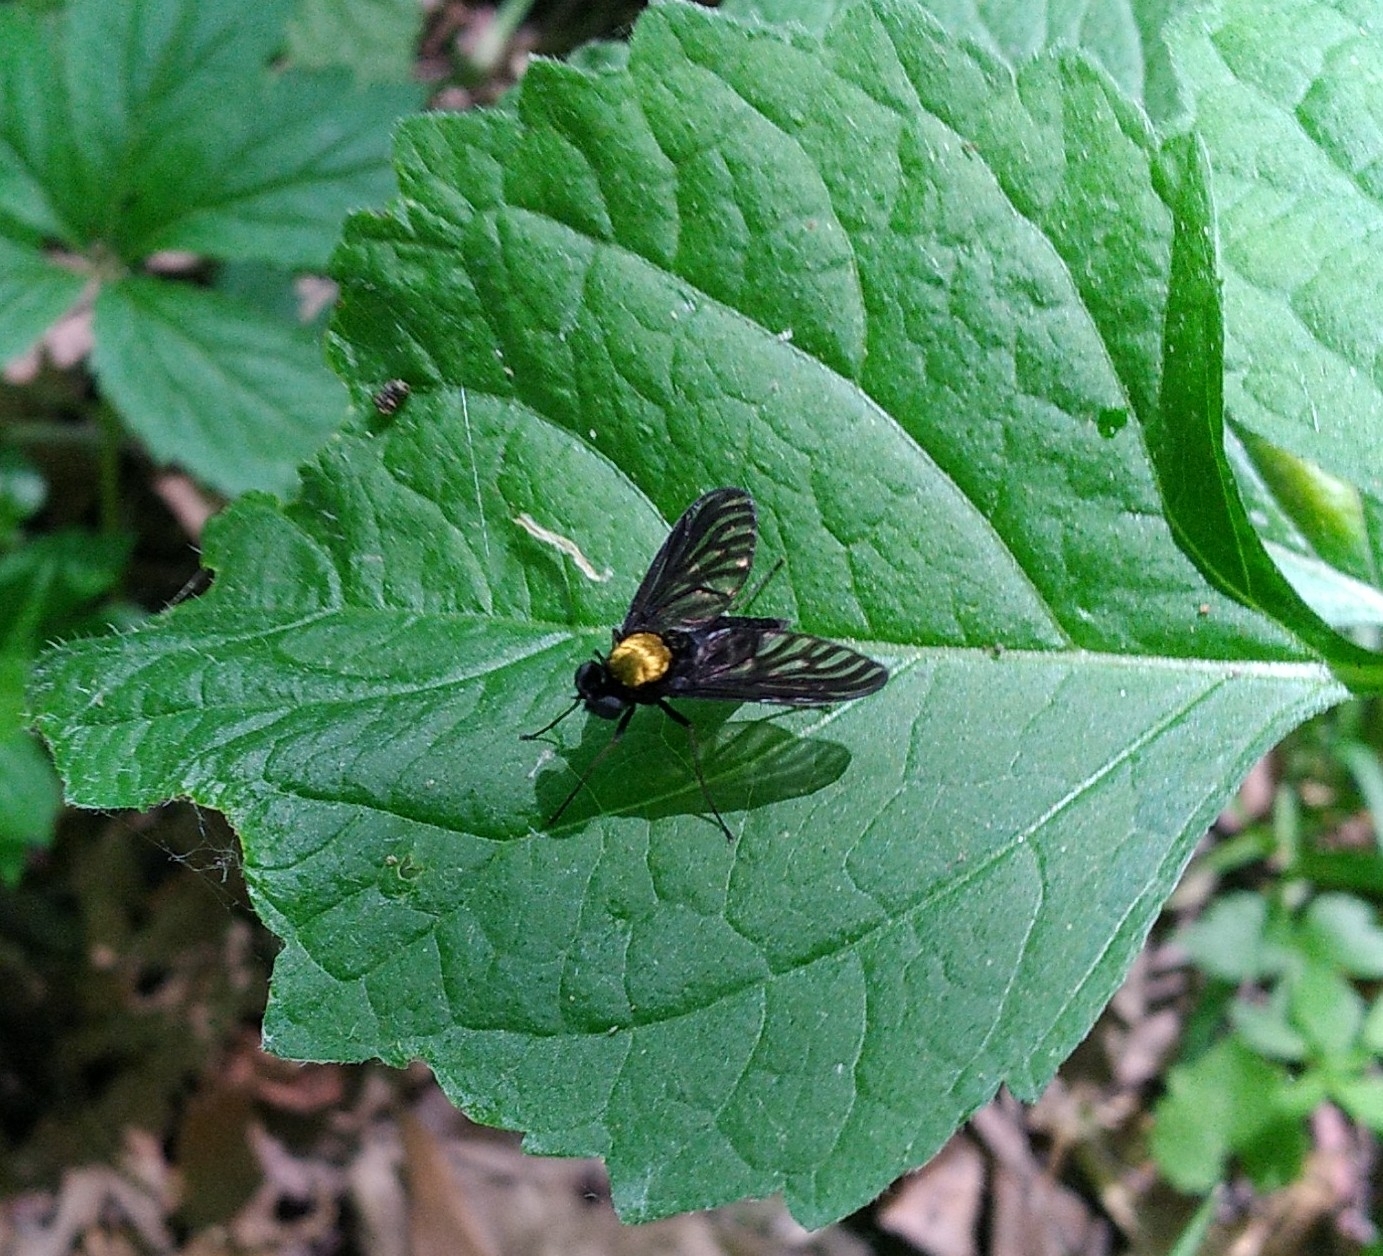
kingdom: Animalia
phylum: Arthropoda
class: Insecta
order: Diptera
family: Rhagionidae
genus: Chrysopilus
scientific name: Chrysopilus thoracicus
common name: Golden-backed snipe fly
